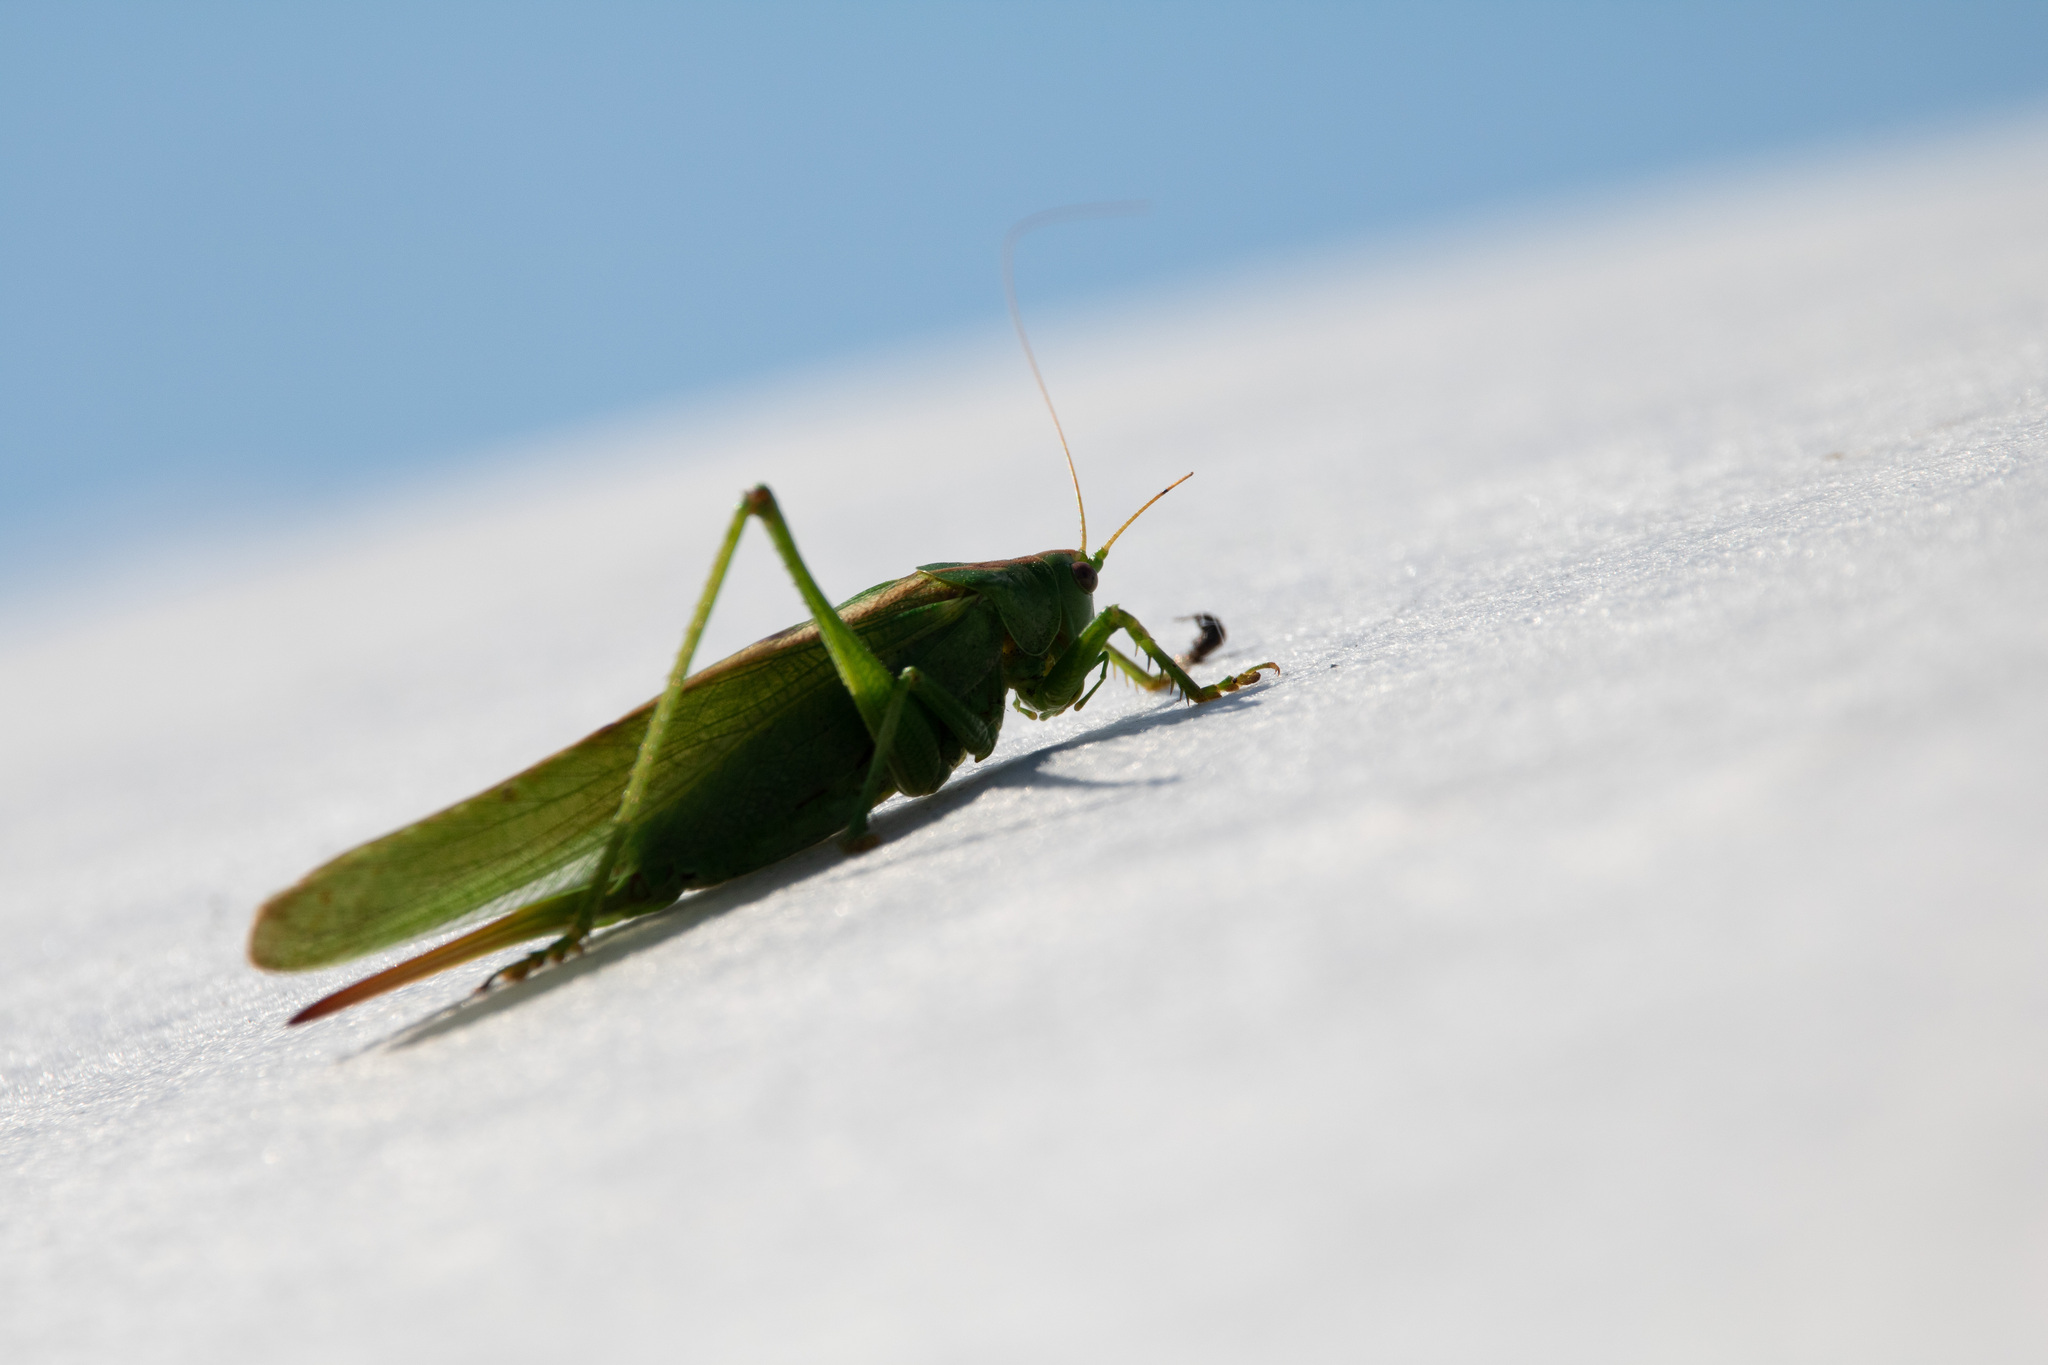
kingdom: Animalia
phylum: Arthropoda
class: Insecta
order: Orthoptera
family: Tettigoniidae
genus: Tettigonia
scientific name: Tettigonia viridissima
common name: Great green bush-cricket
